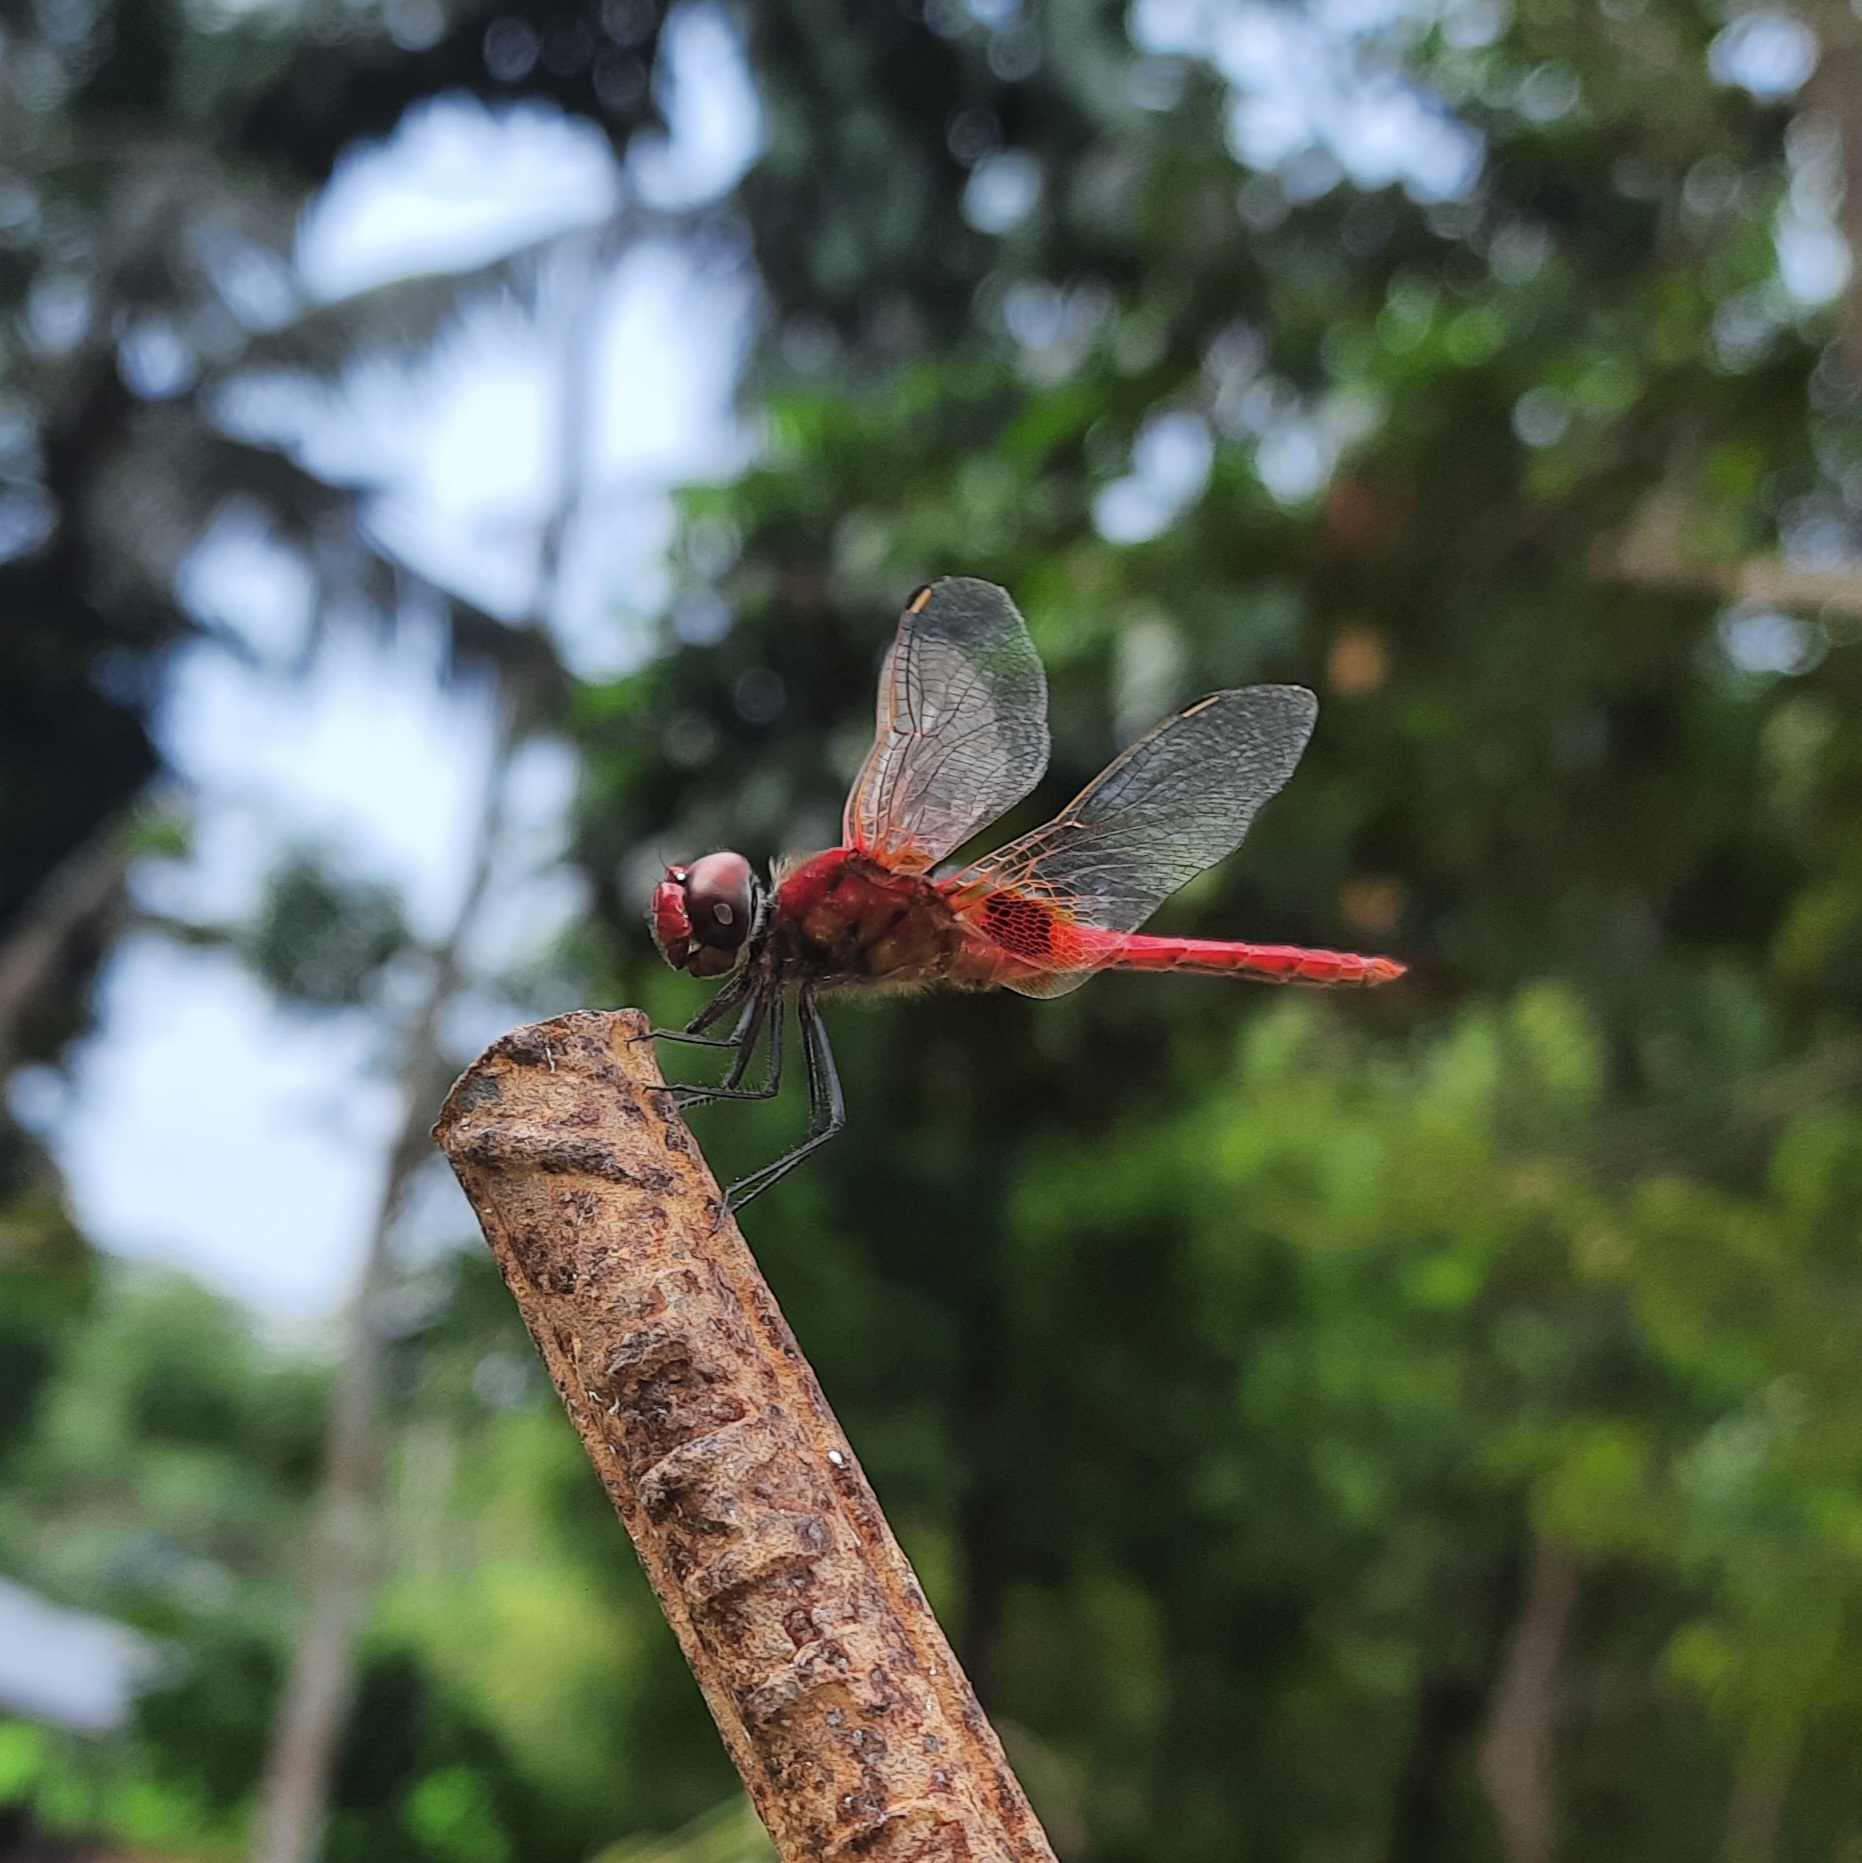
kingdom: Animalia
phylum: Arthropoda
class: Insecta
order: Odonata
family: Libellulidae
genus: Urothemis
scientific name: Urothemis signata
